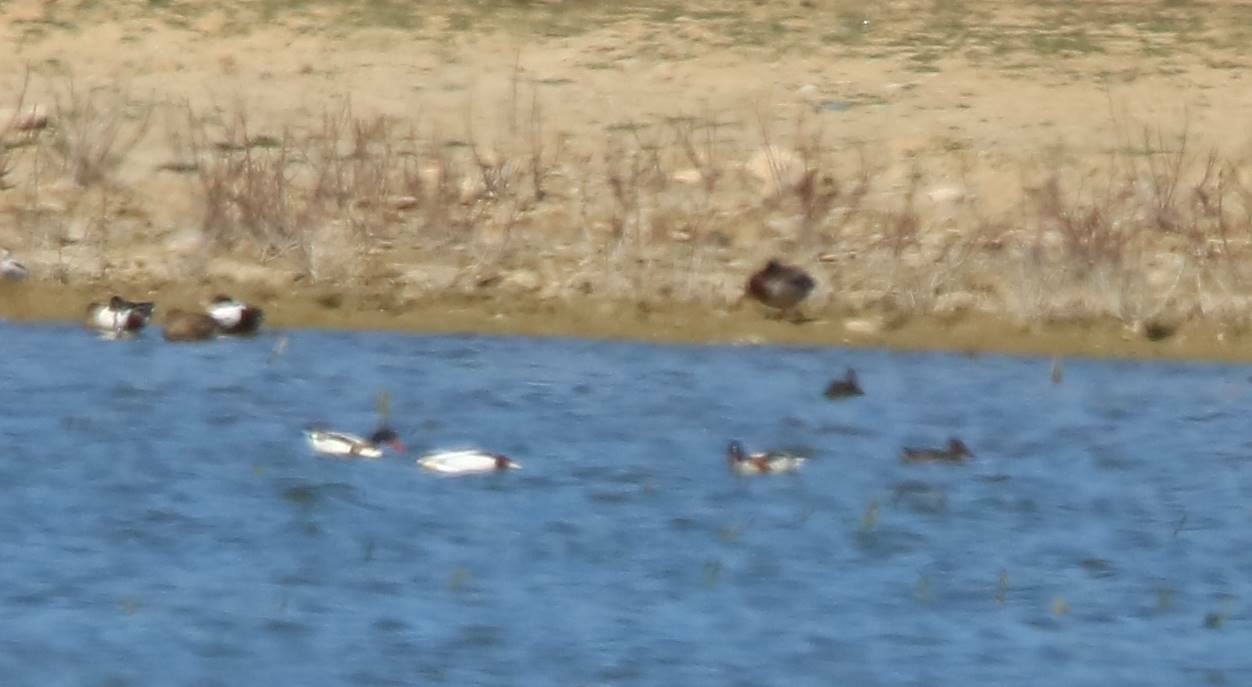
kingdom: Animalia
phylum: Chordata
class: Aves
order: Anseriformes
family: Anatidae
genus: Tadorna
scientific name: Tadorna tadorna
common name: Common shelduck
